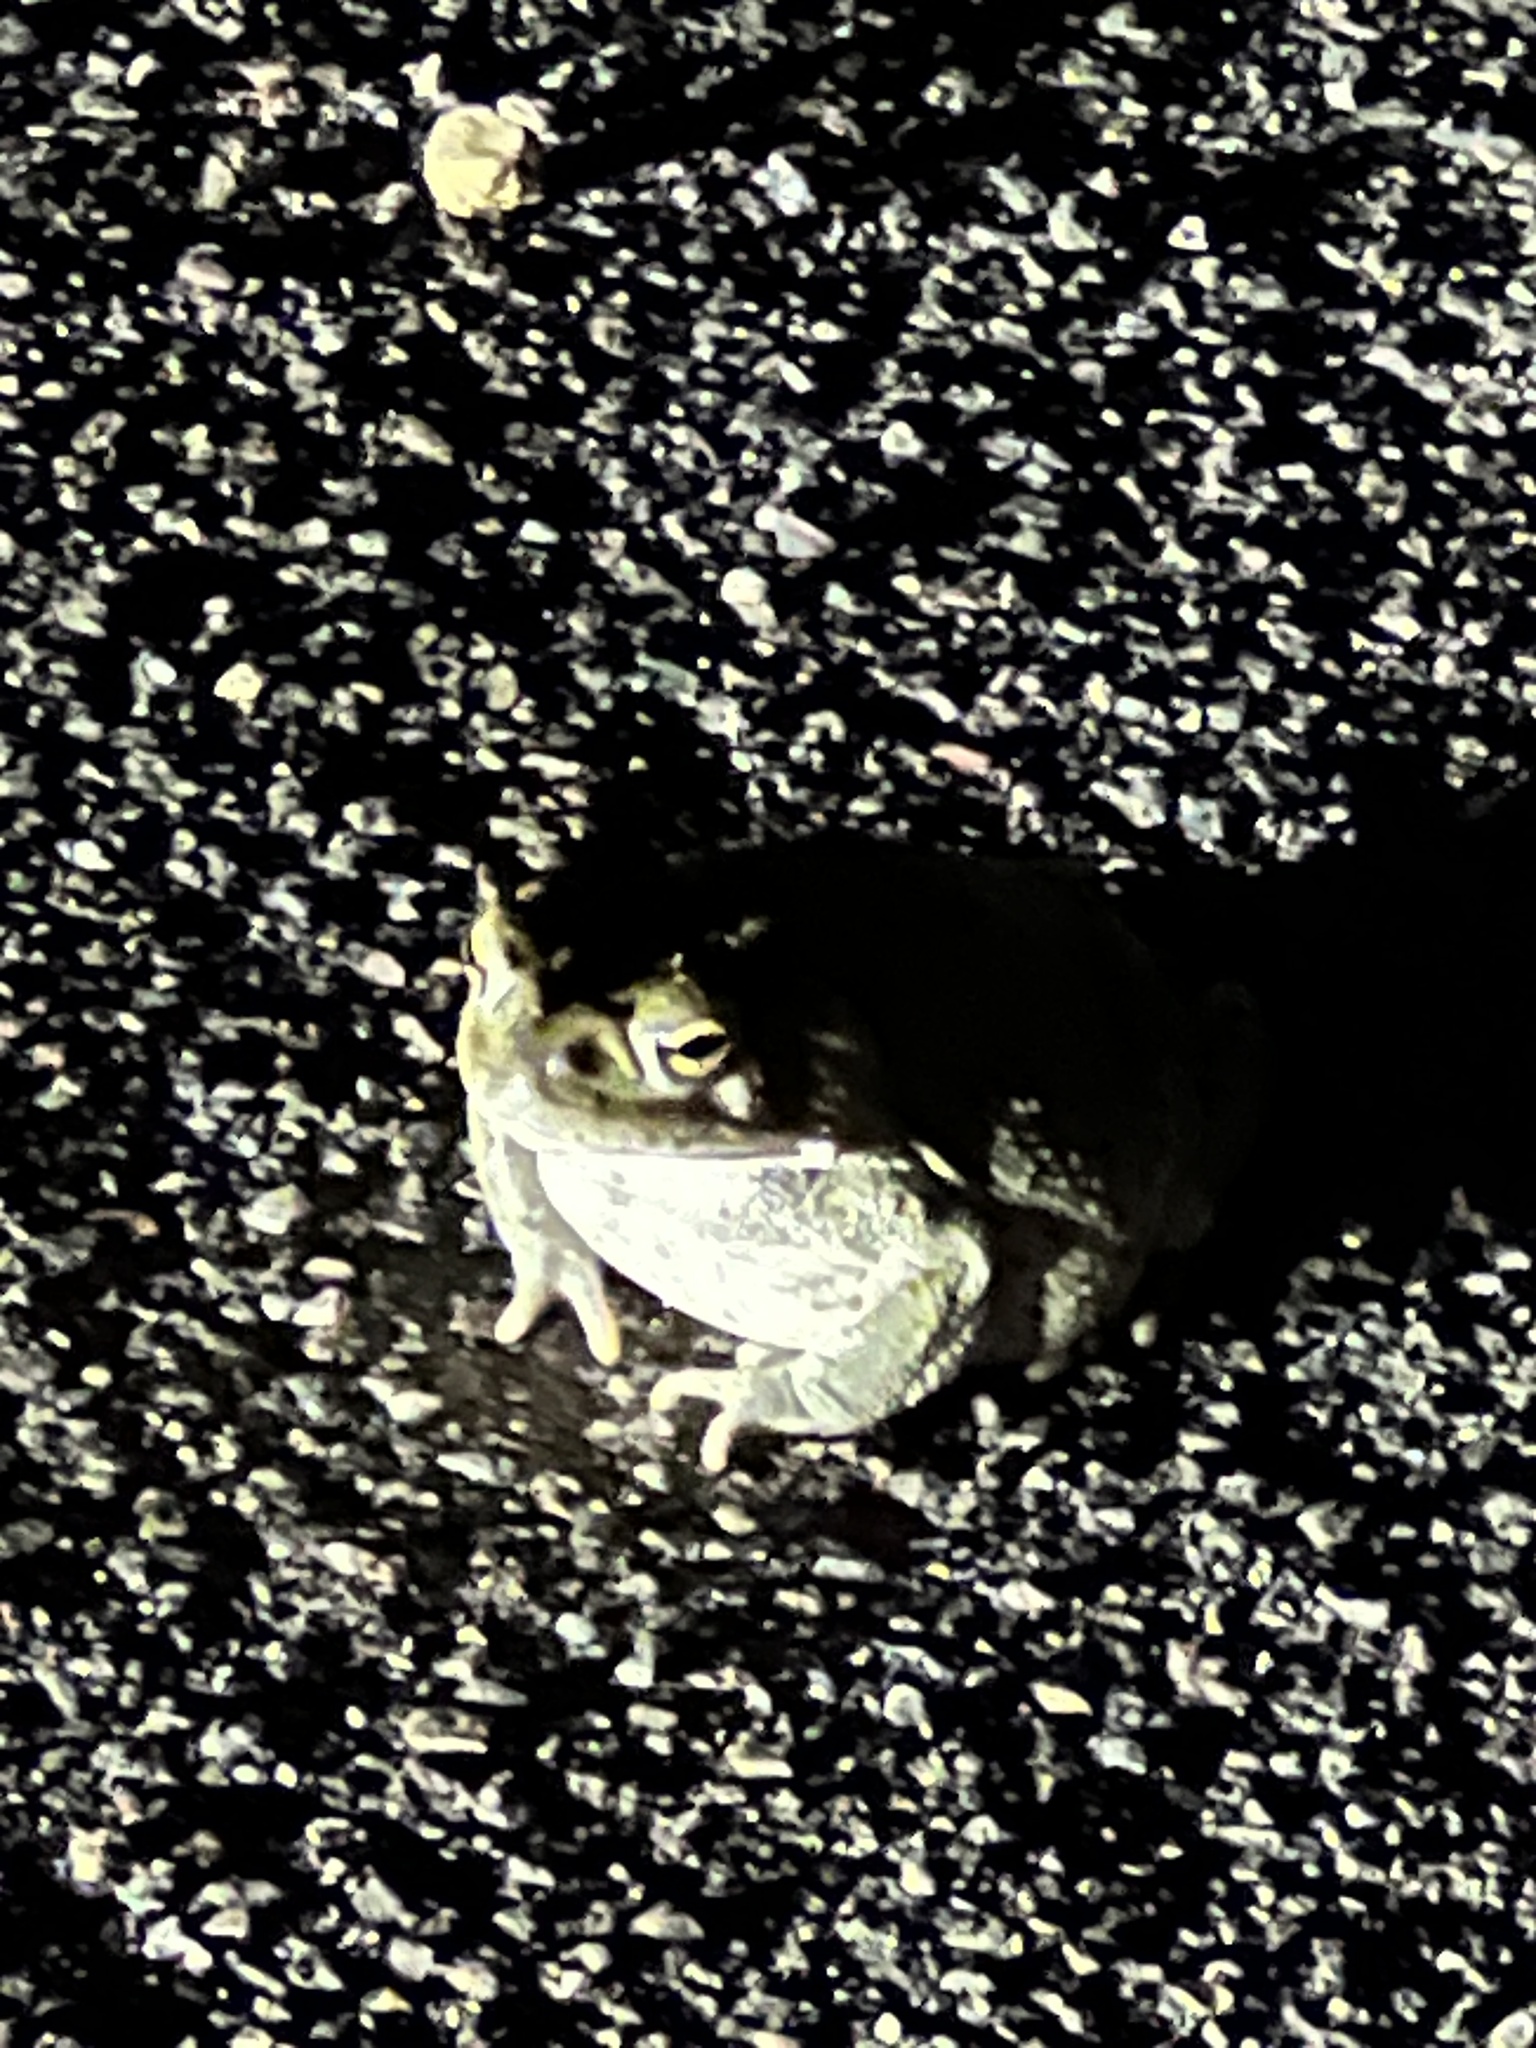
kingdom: Animalia
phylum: Chordata
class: Amphibia
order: Anura
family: Bufonidae
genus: Incilius
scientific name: Incilius alvarius
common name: Sonoran desert toad
